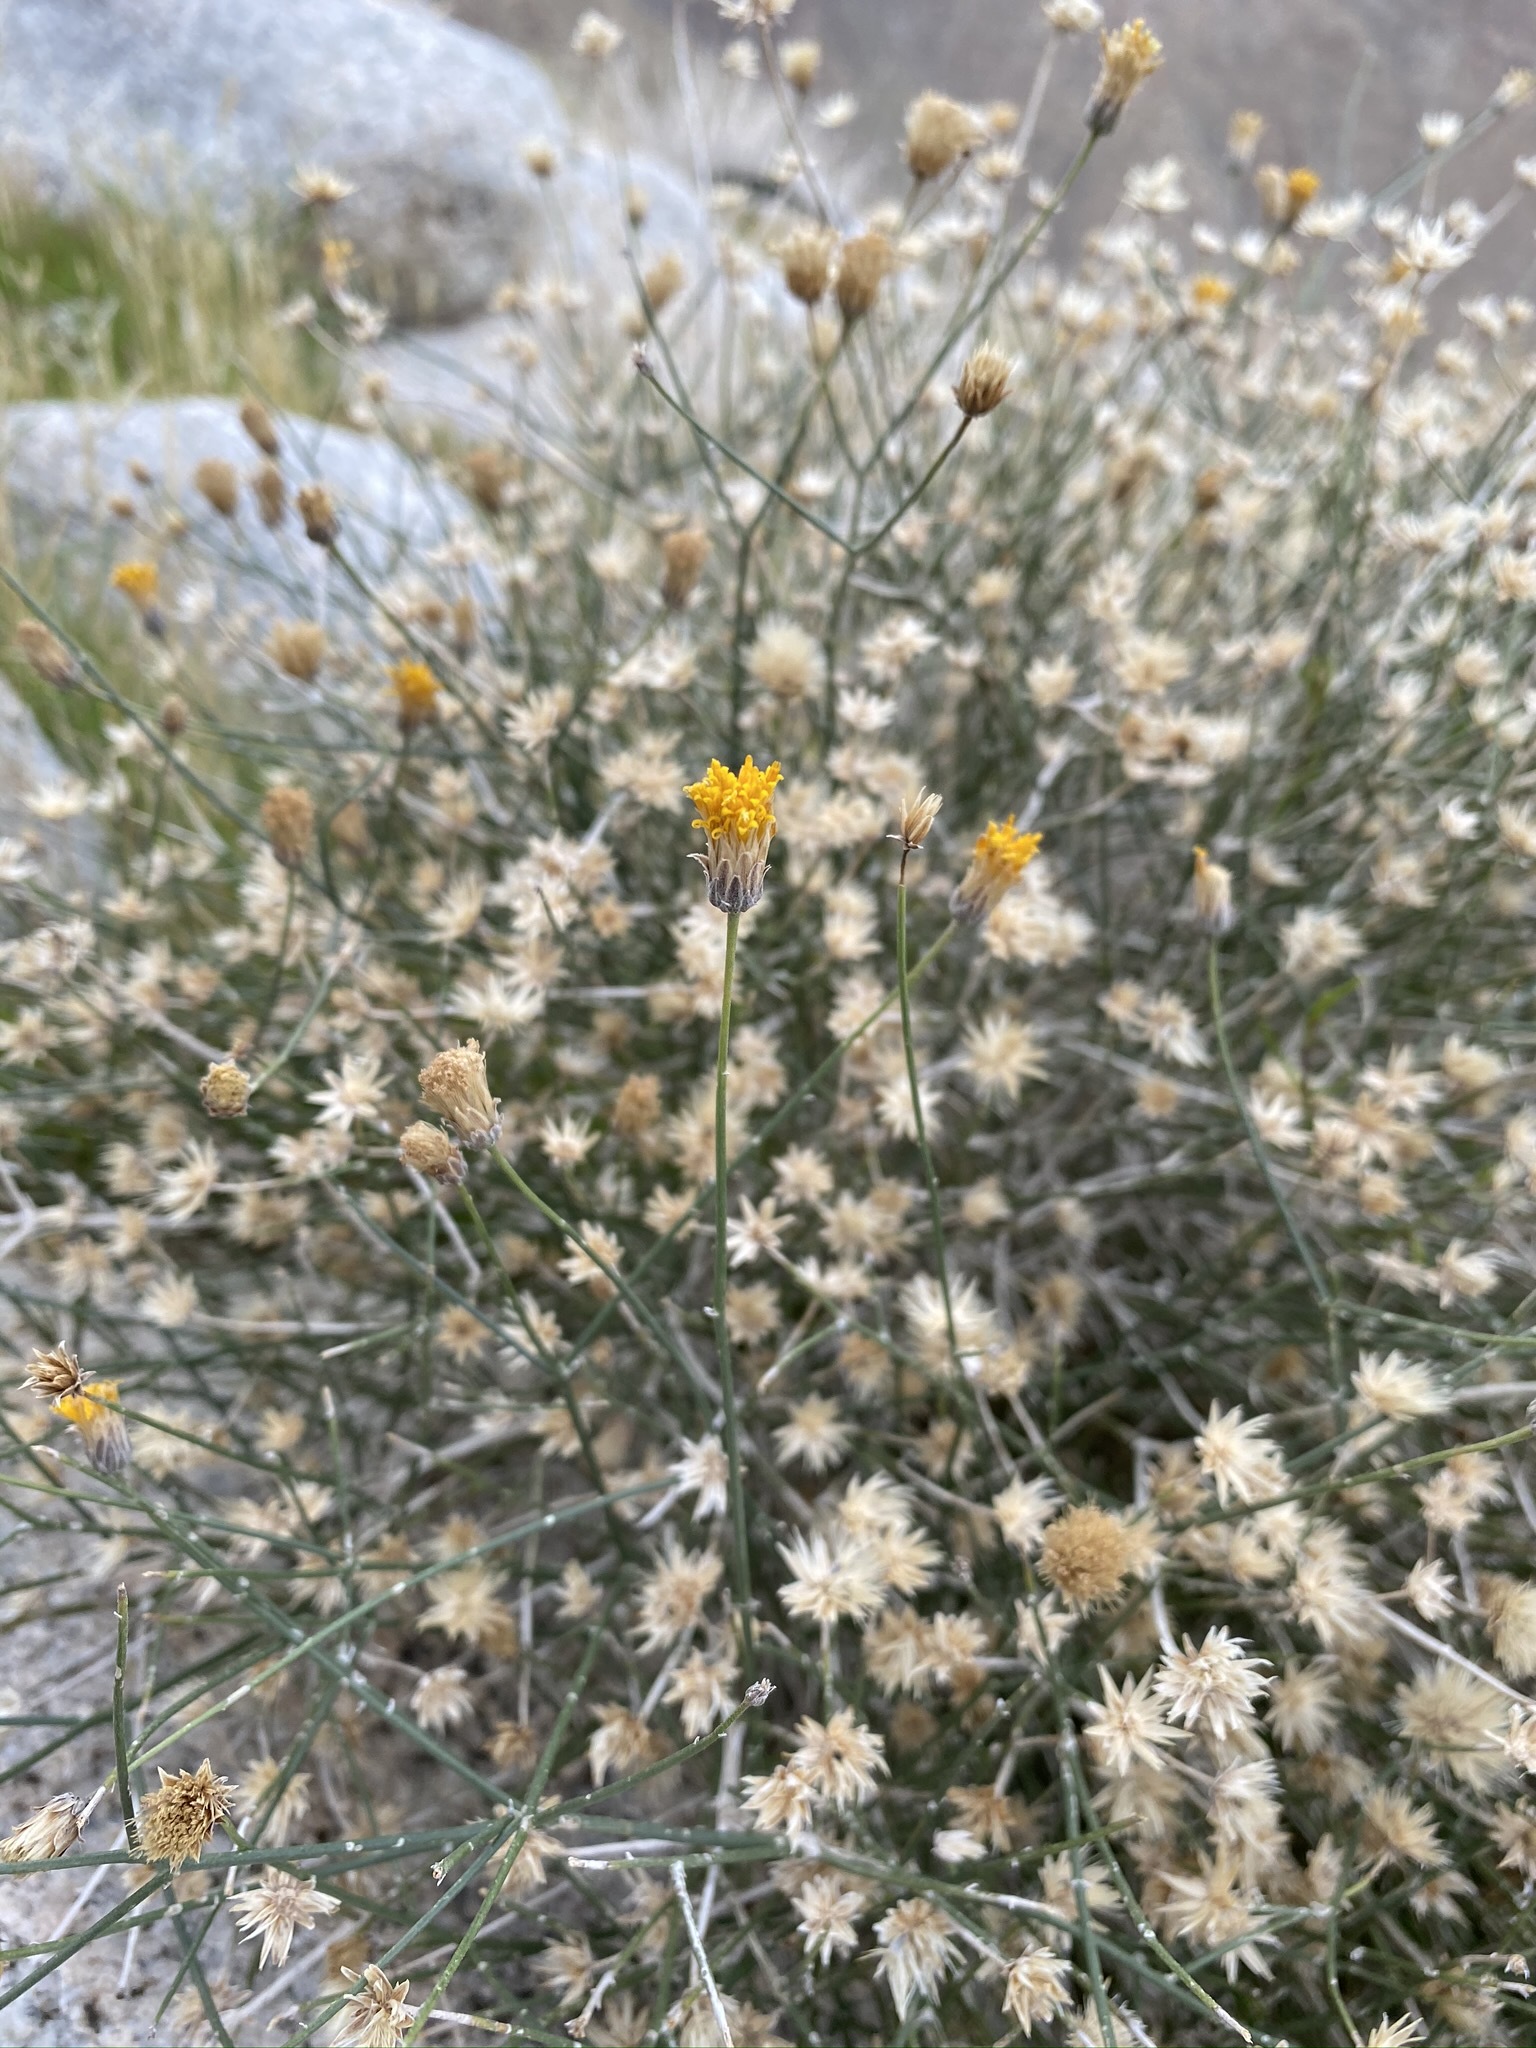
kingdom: Plantae
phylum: Tracheophyta
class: Magnoliopsida
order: Asterales
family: Asteraceae
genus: Bebbia
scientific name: Bebbia juncea
